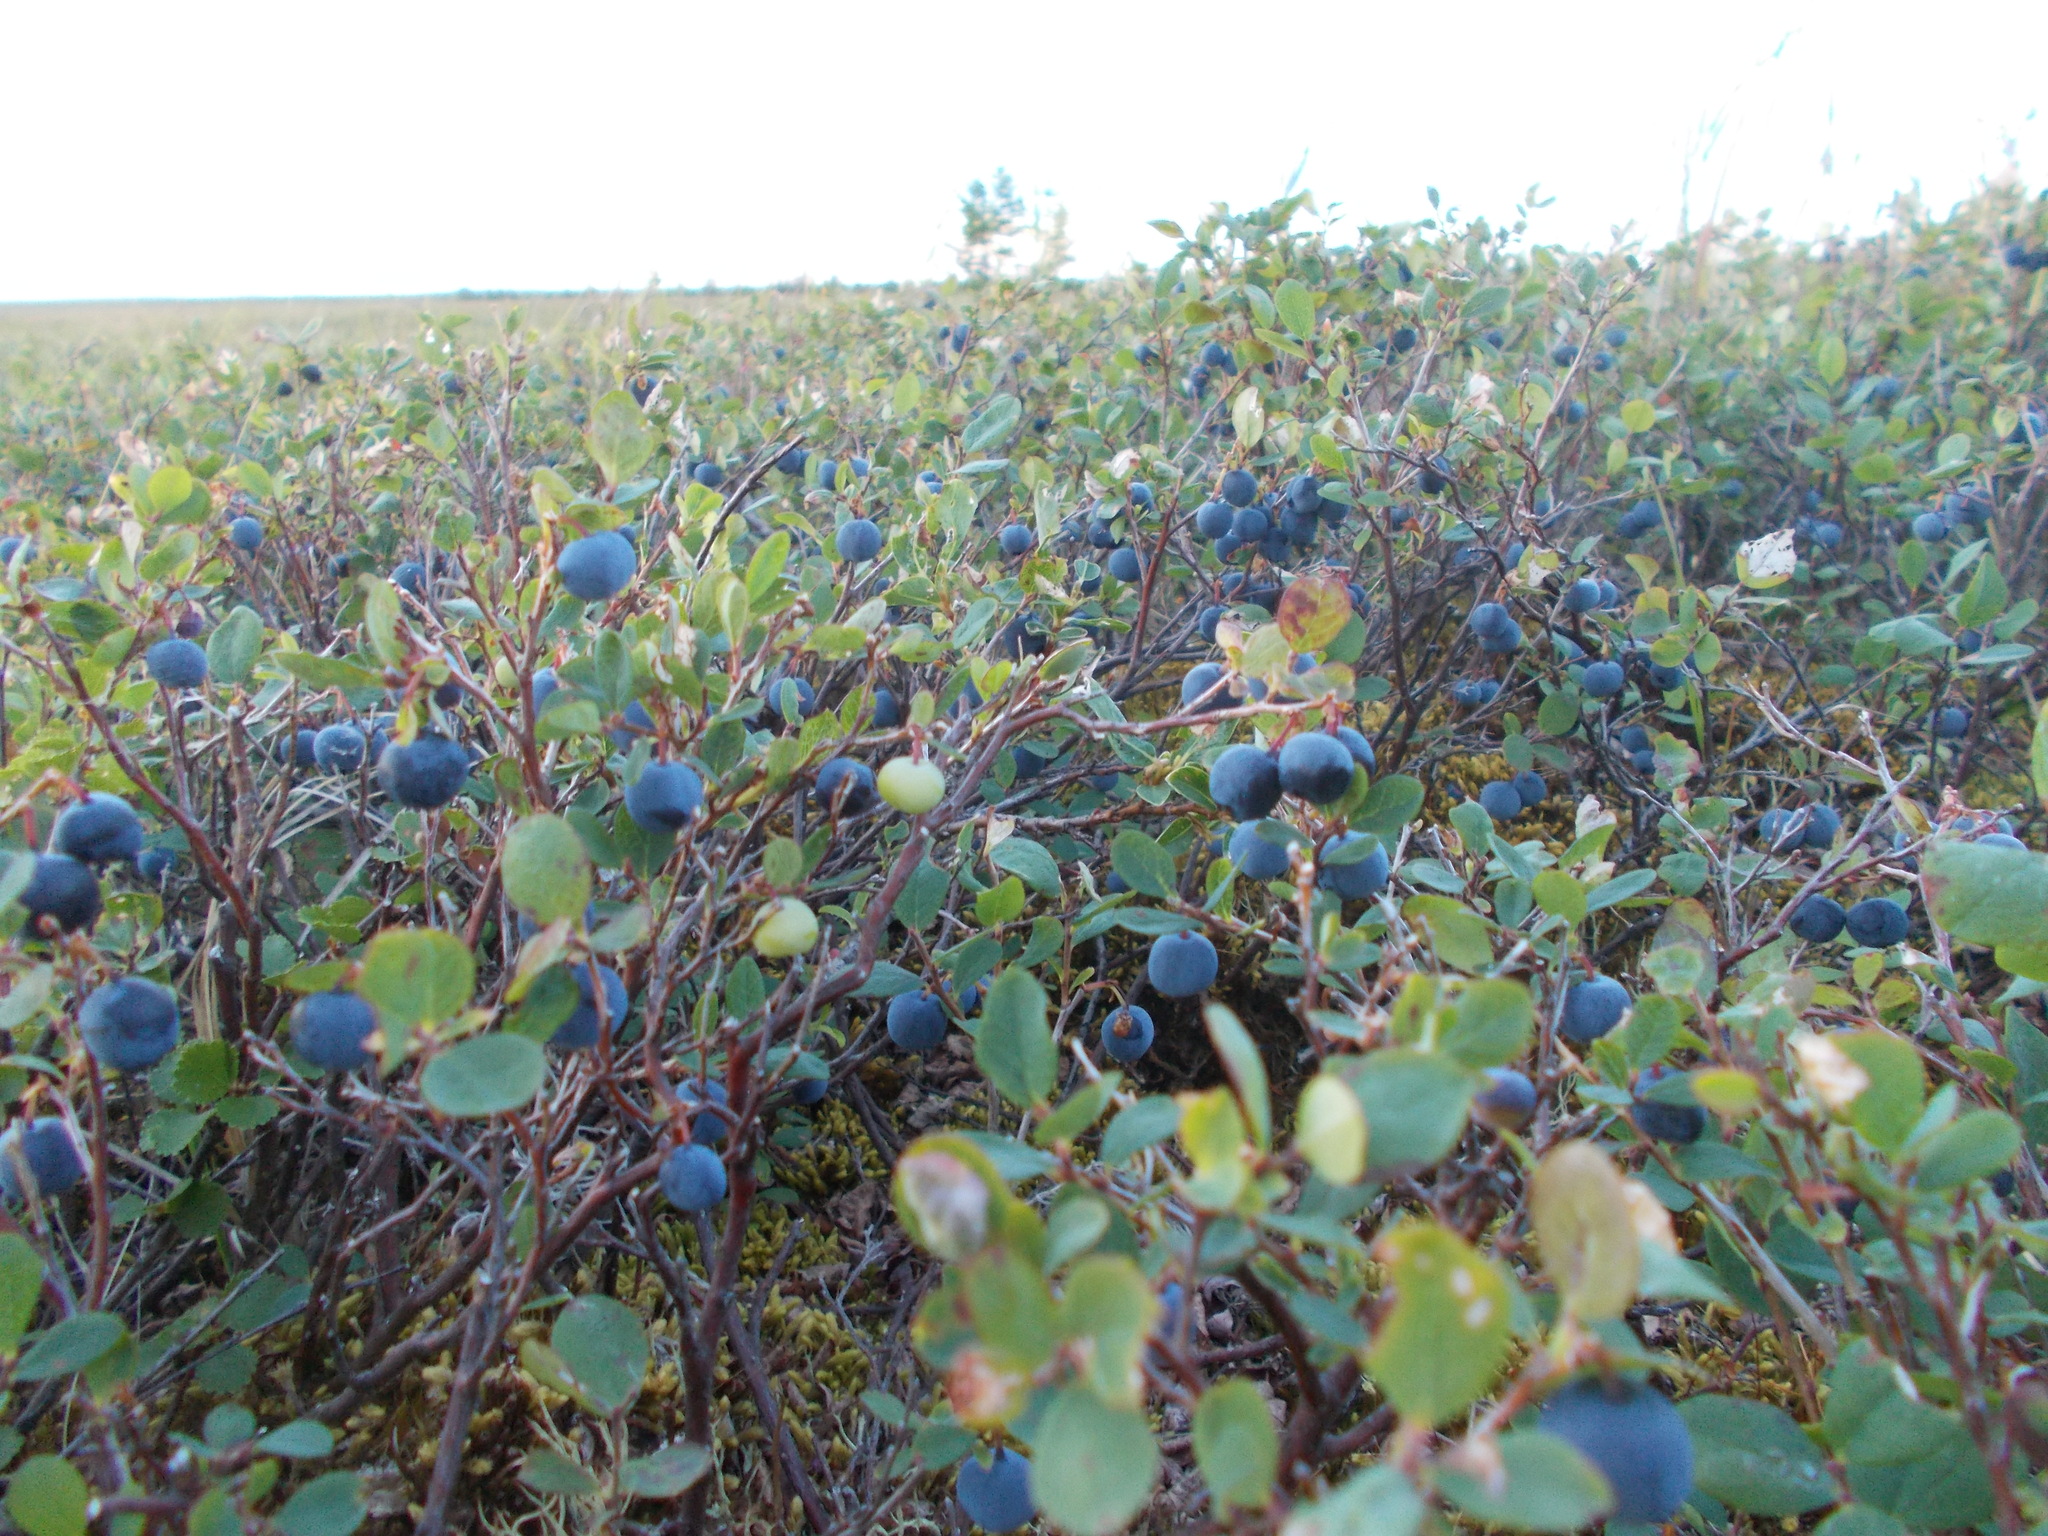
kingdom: Plantae
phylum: Tracheophyta
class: Magnoliopsida
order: Ericales
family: Ericaceae
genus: Vaccinium
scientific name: Vaccinium uliginosum
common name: Bog bilberry
